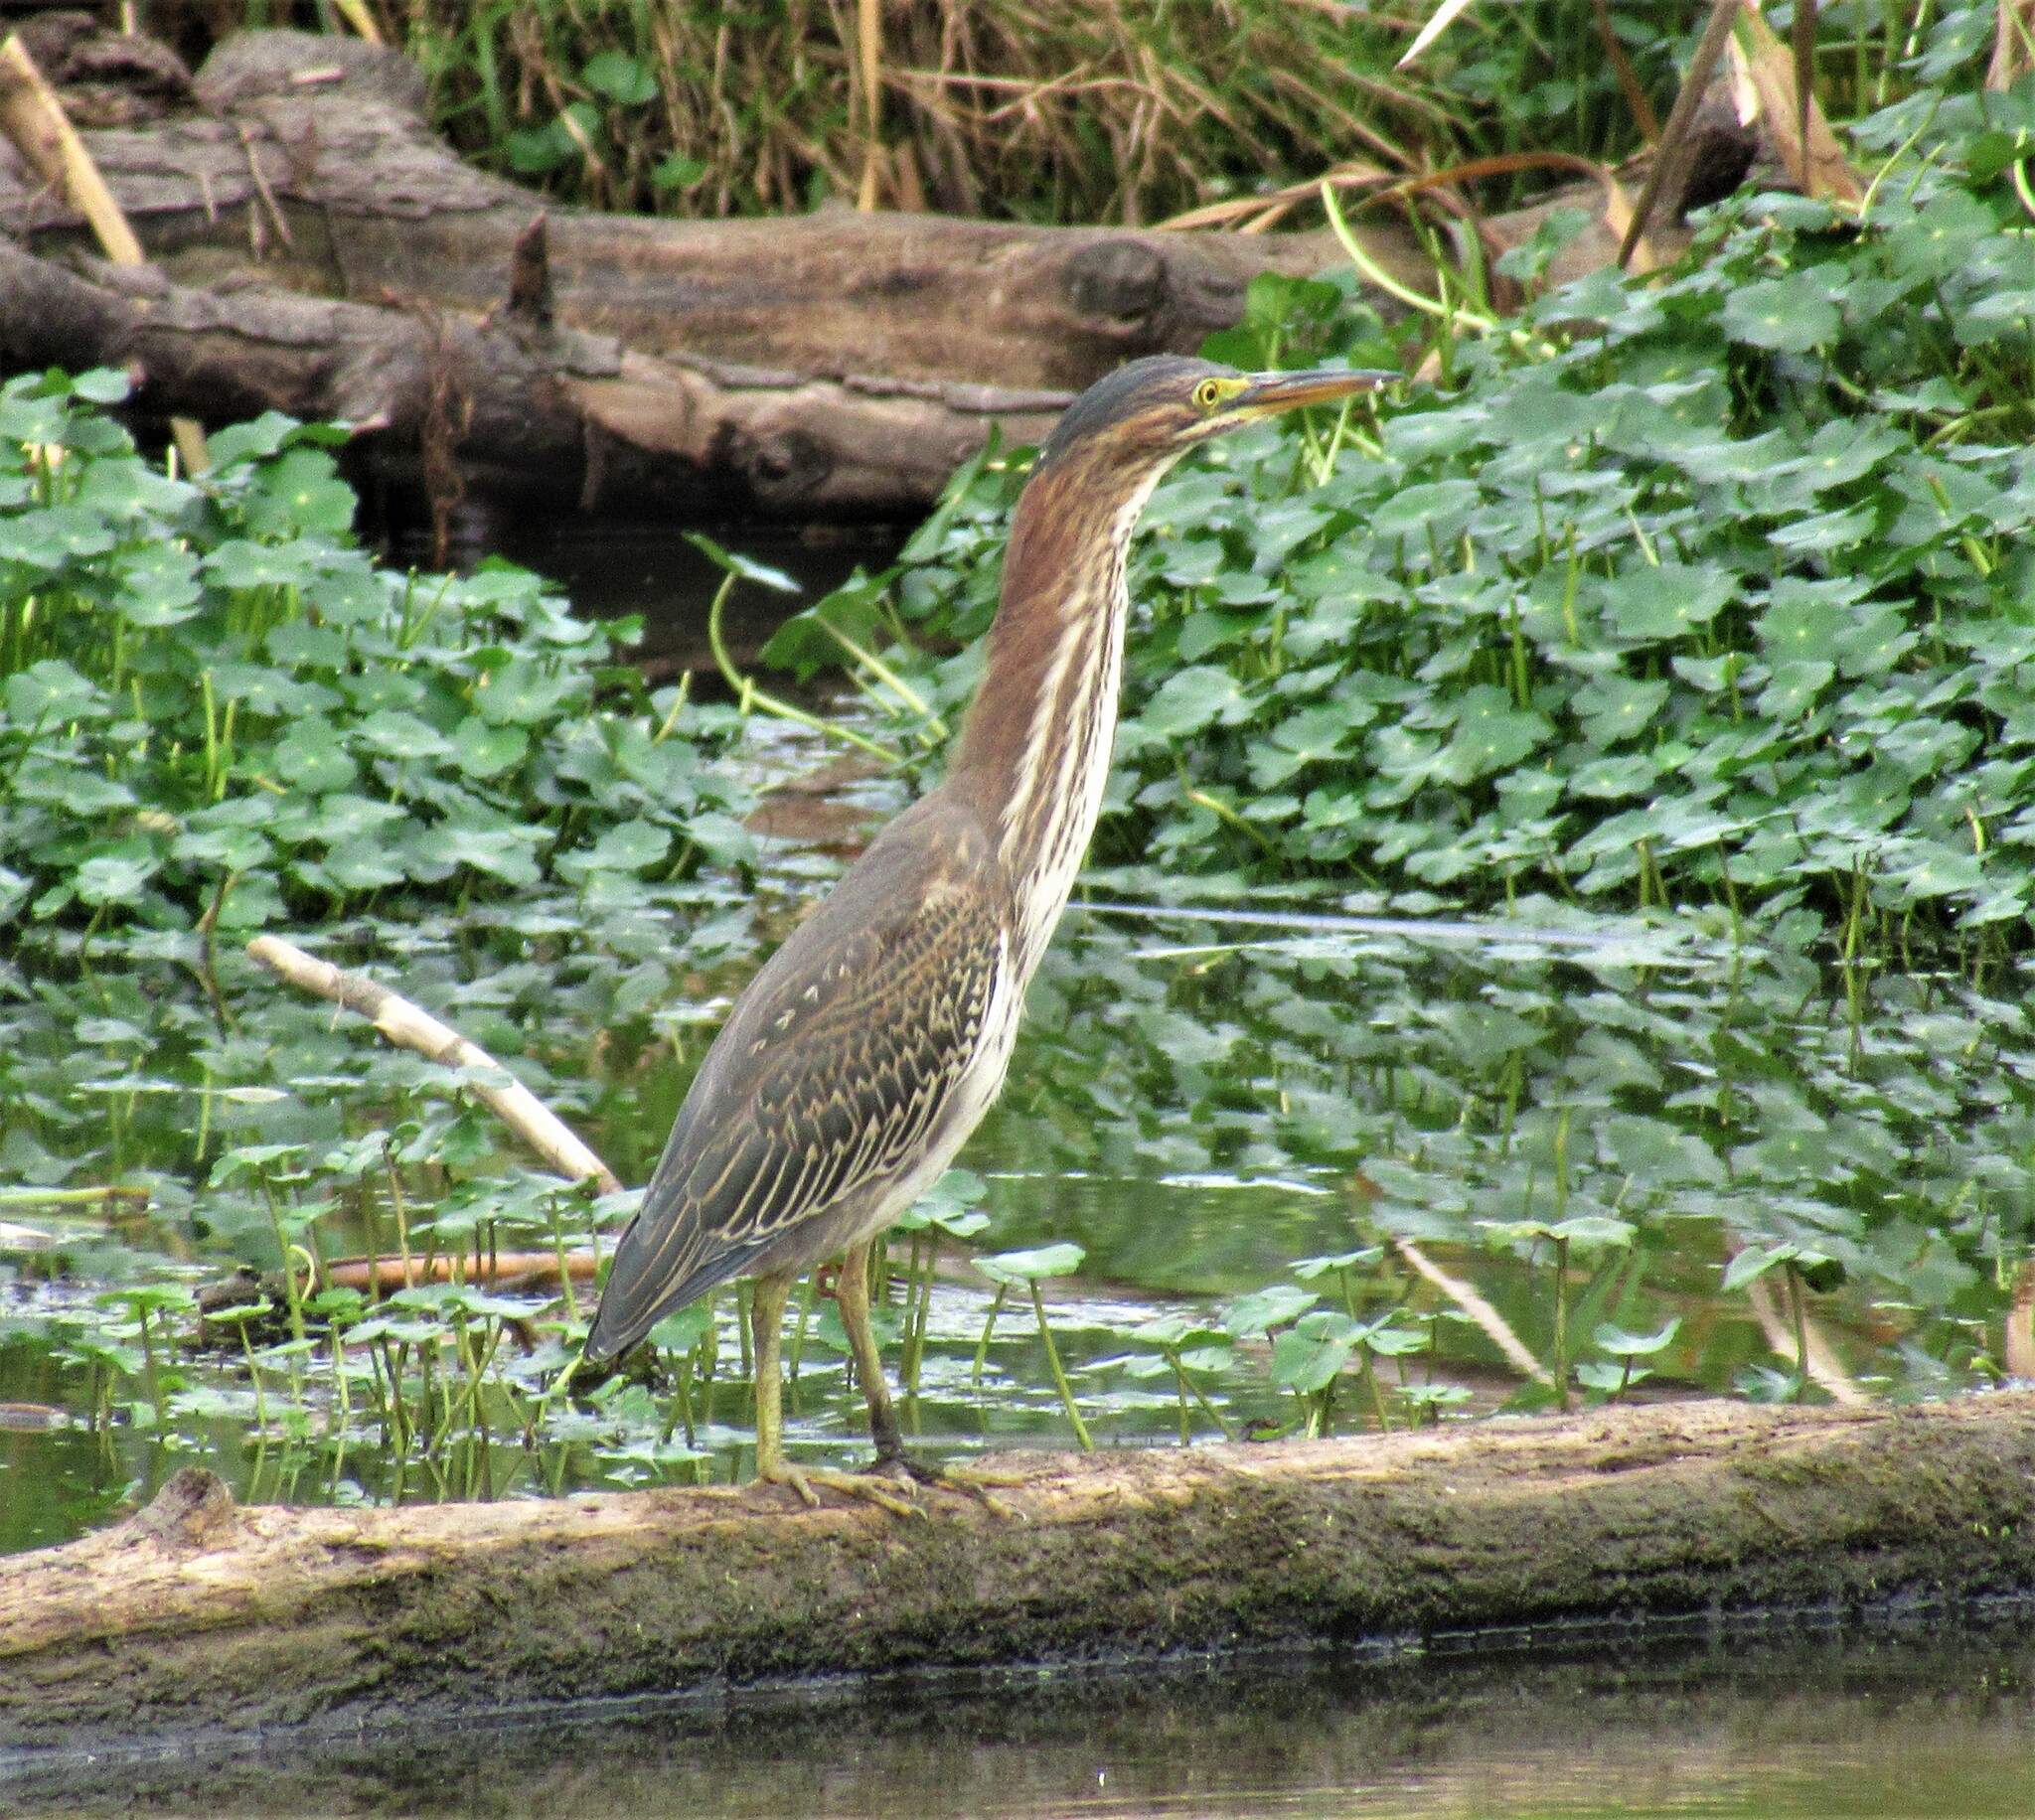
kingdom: Animalia
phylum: Chordata
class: Aves
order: Pelecaniformes
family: Ardeidae
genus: Butorides
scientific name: Butorides virescens
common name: Green heron
